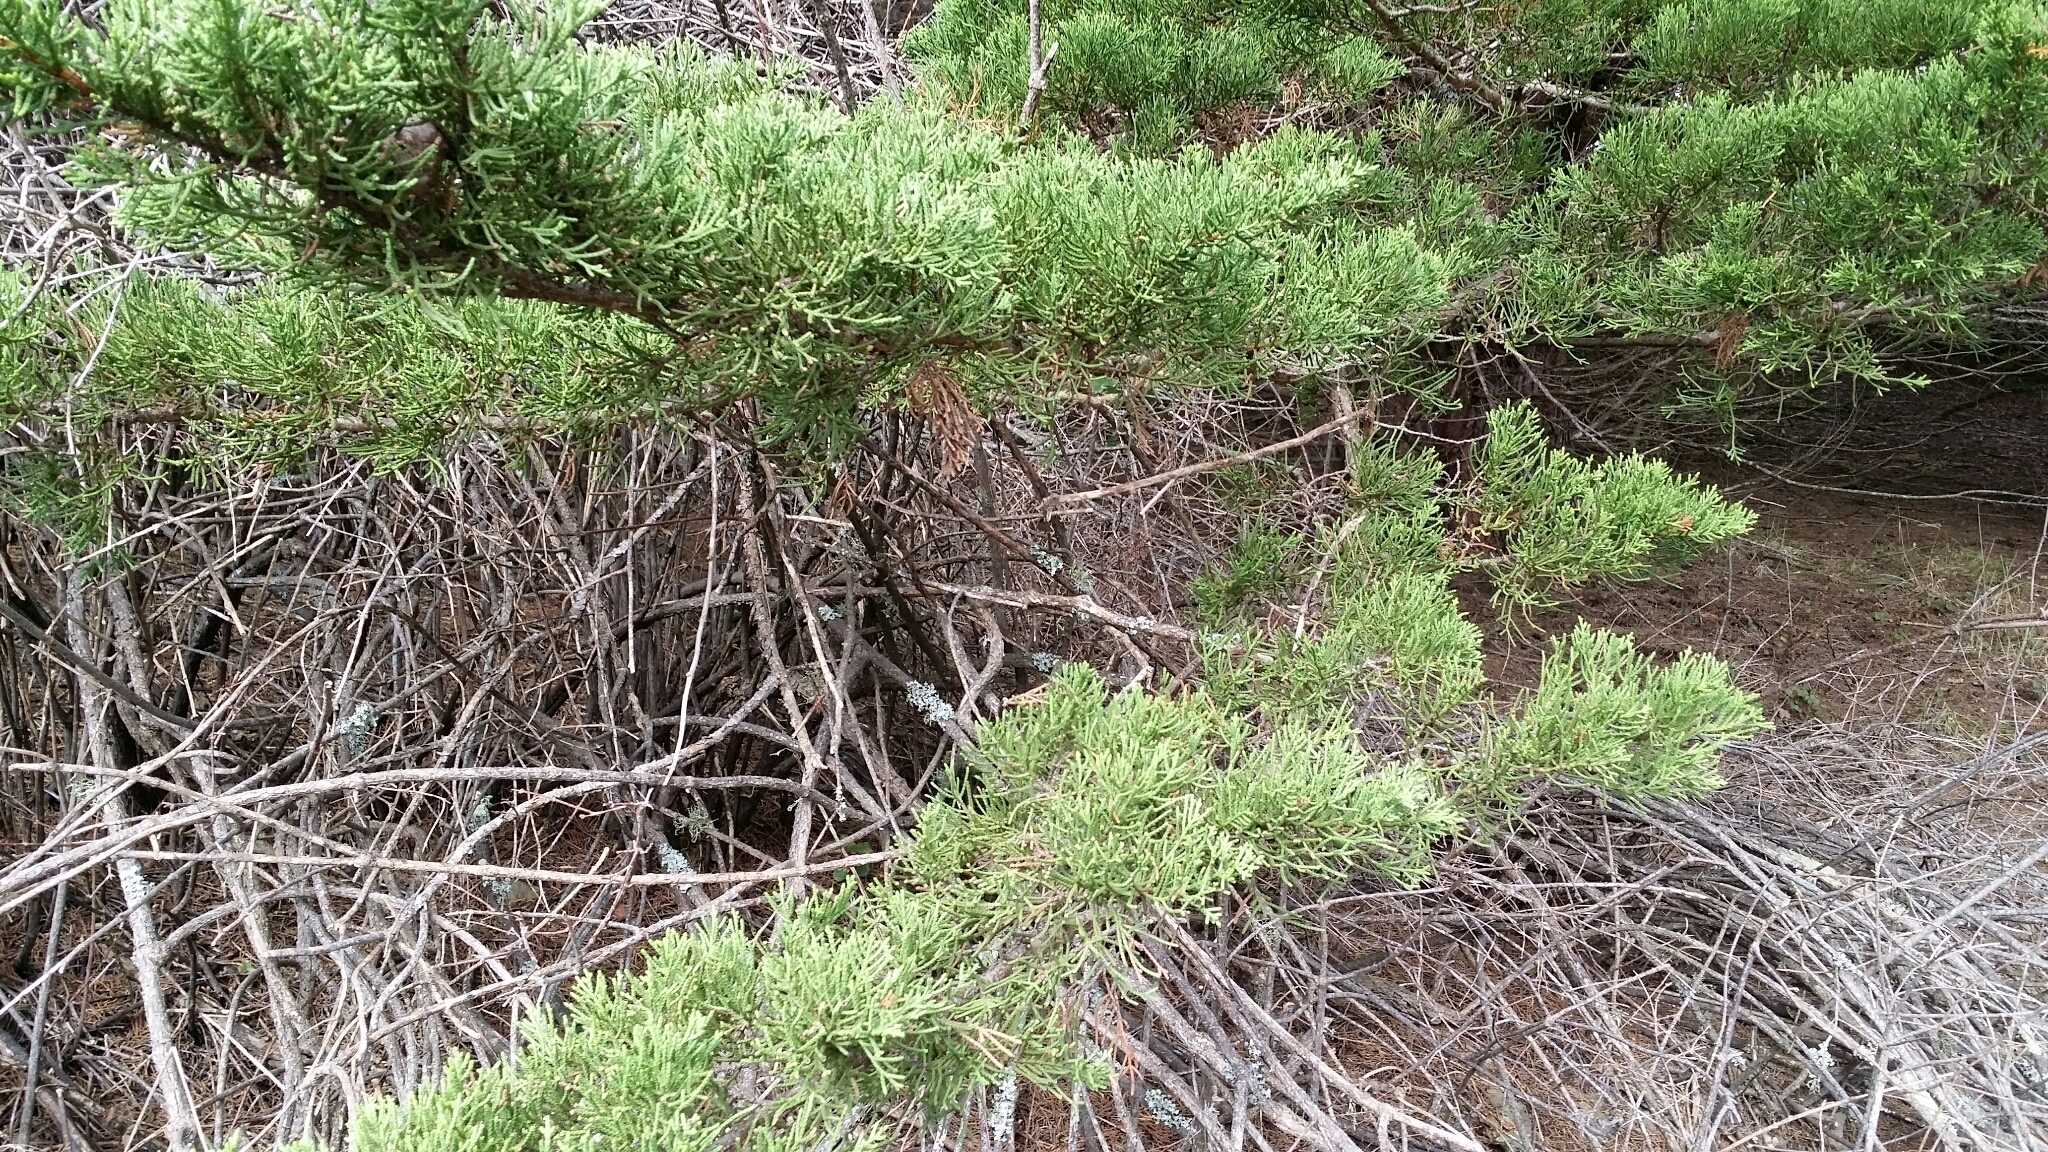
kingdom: Plantae
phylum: Tracheophyta
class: Pinopsida
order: Pinales
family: Cupressaceae
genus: Cupressus
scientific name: Cupressus macrocarpa
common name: Monterey cypress
